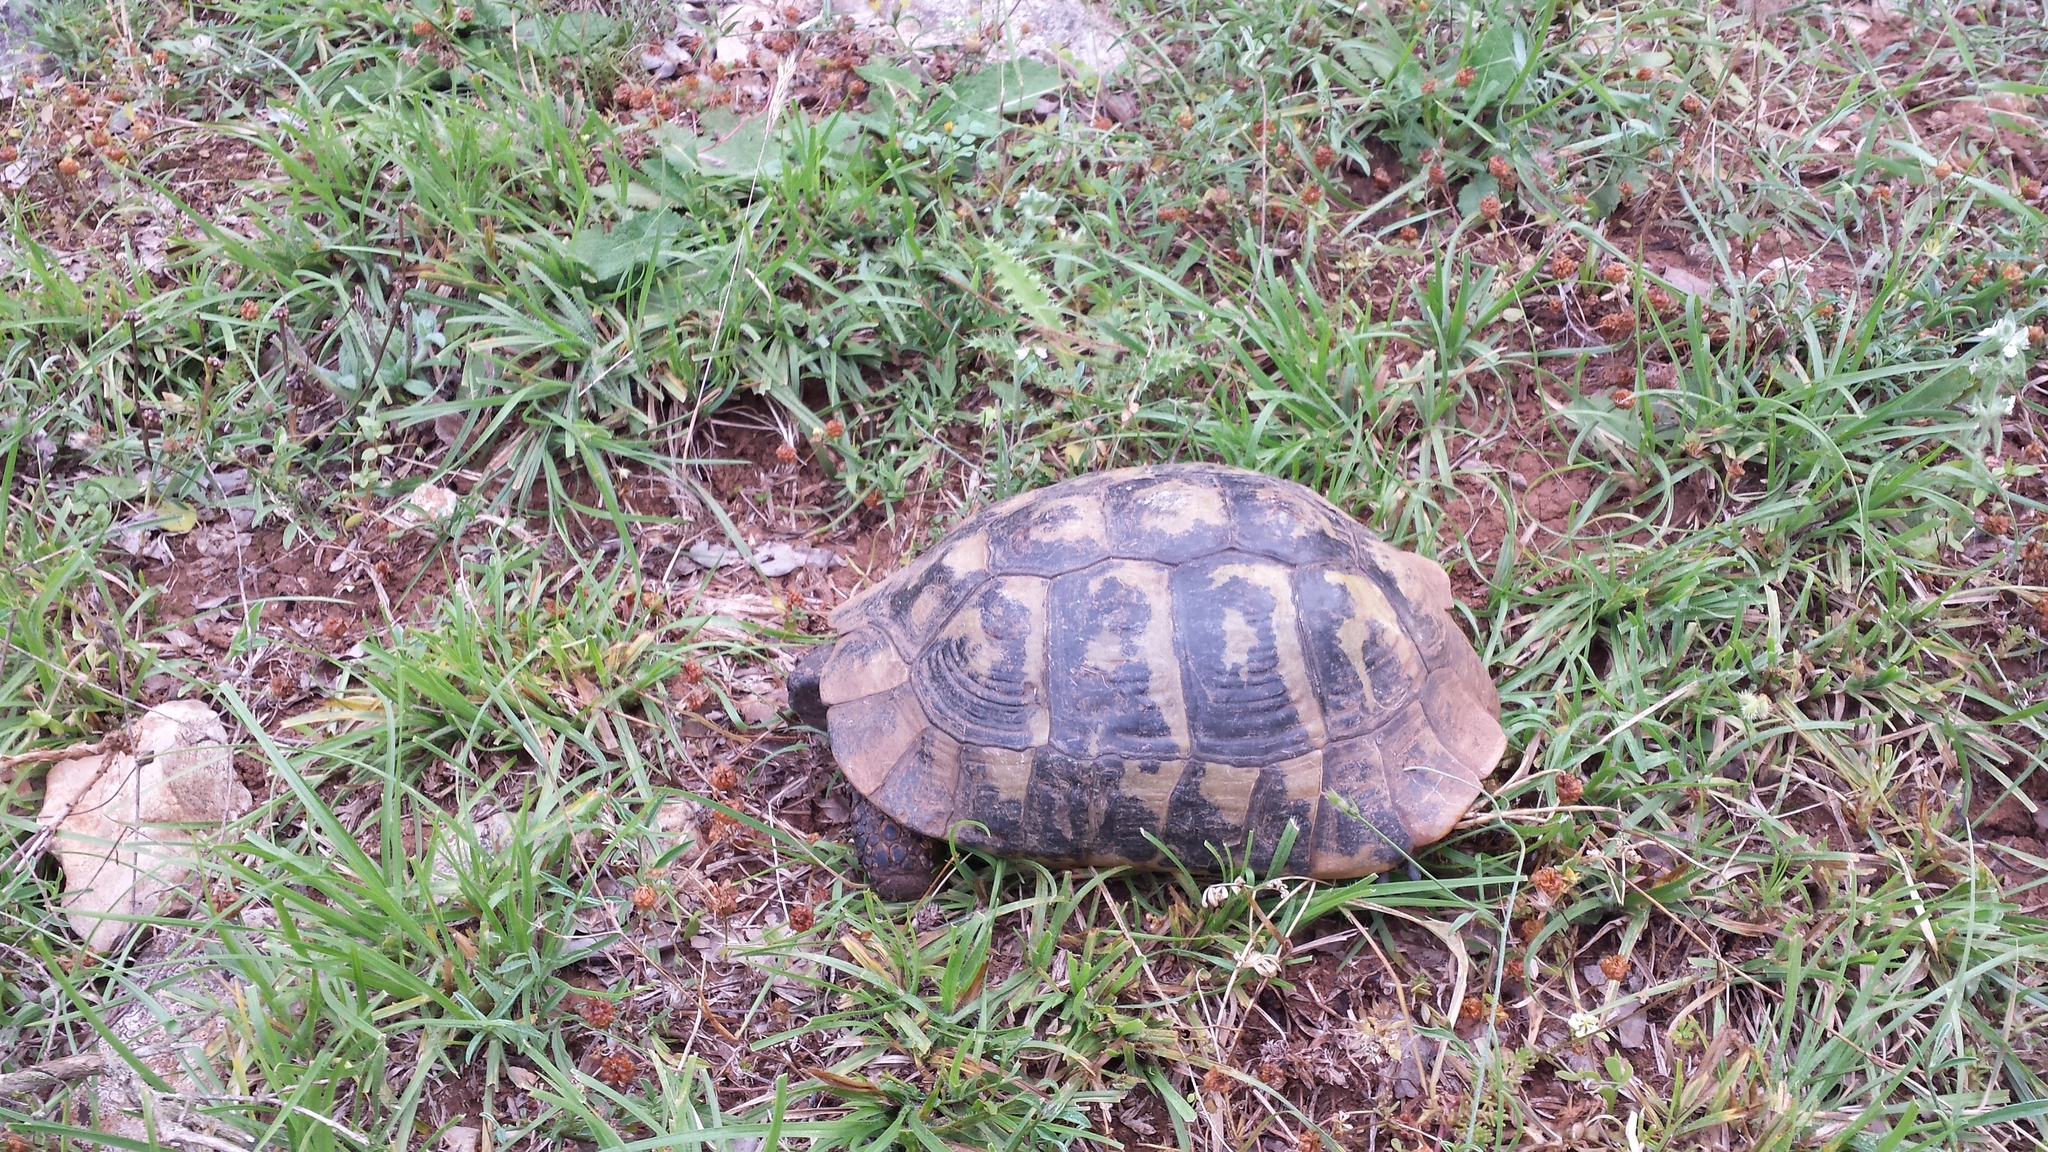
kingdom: Animalia
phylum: Chordata
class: Testudines
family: Testudinidae
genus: Testudo
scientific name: Testudo hermanni
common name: Hermann's tortoise
